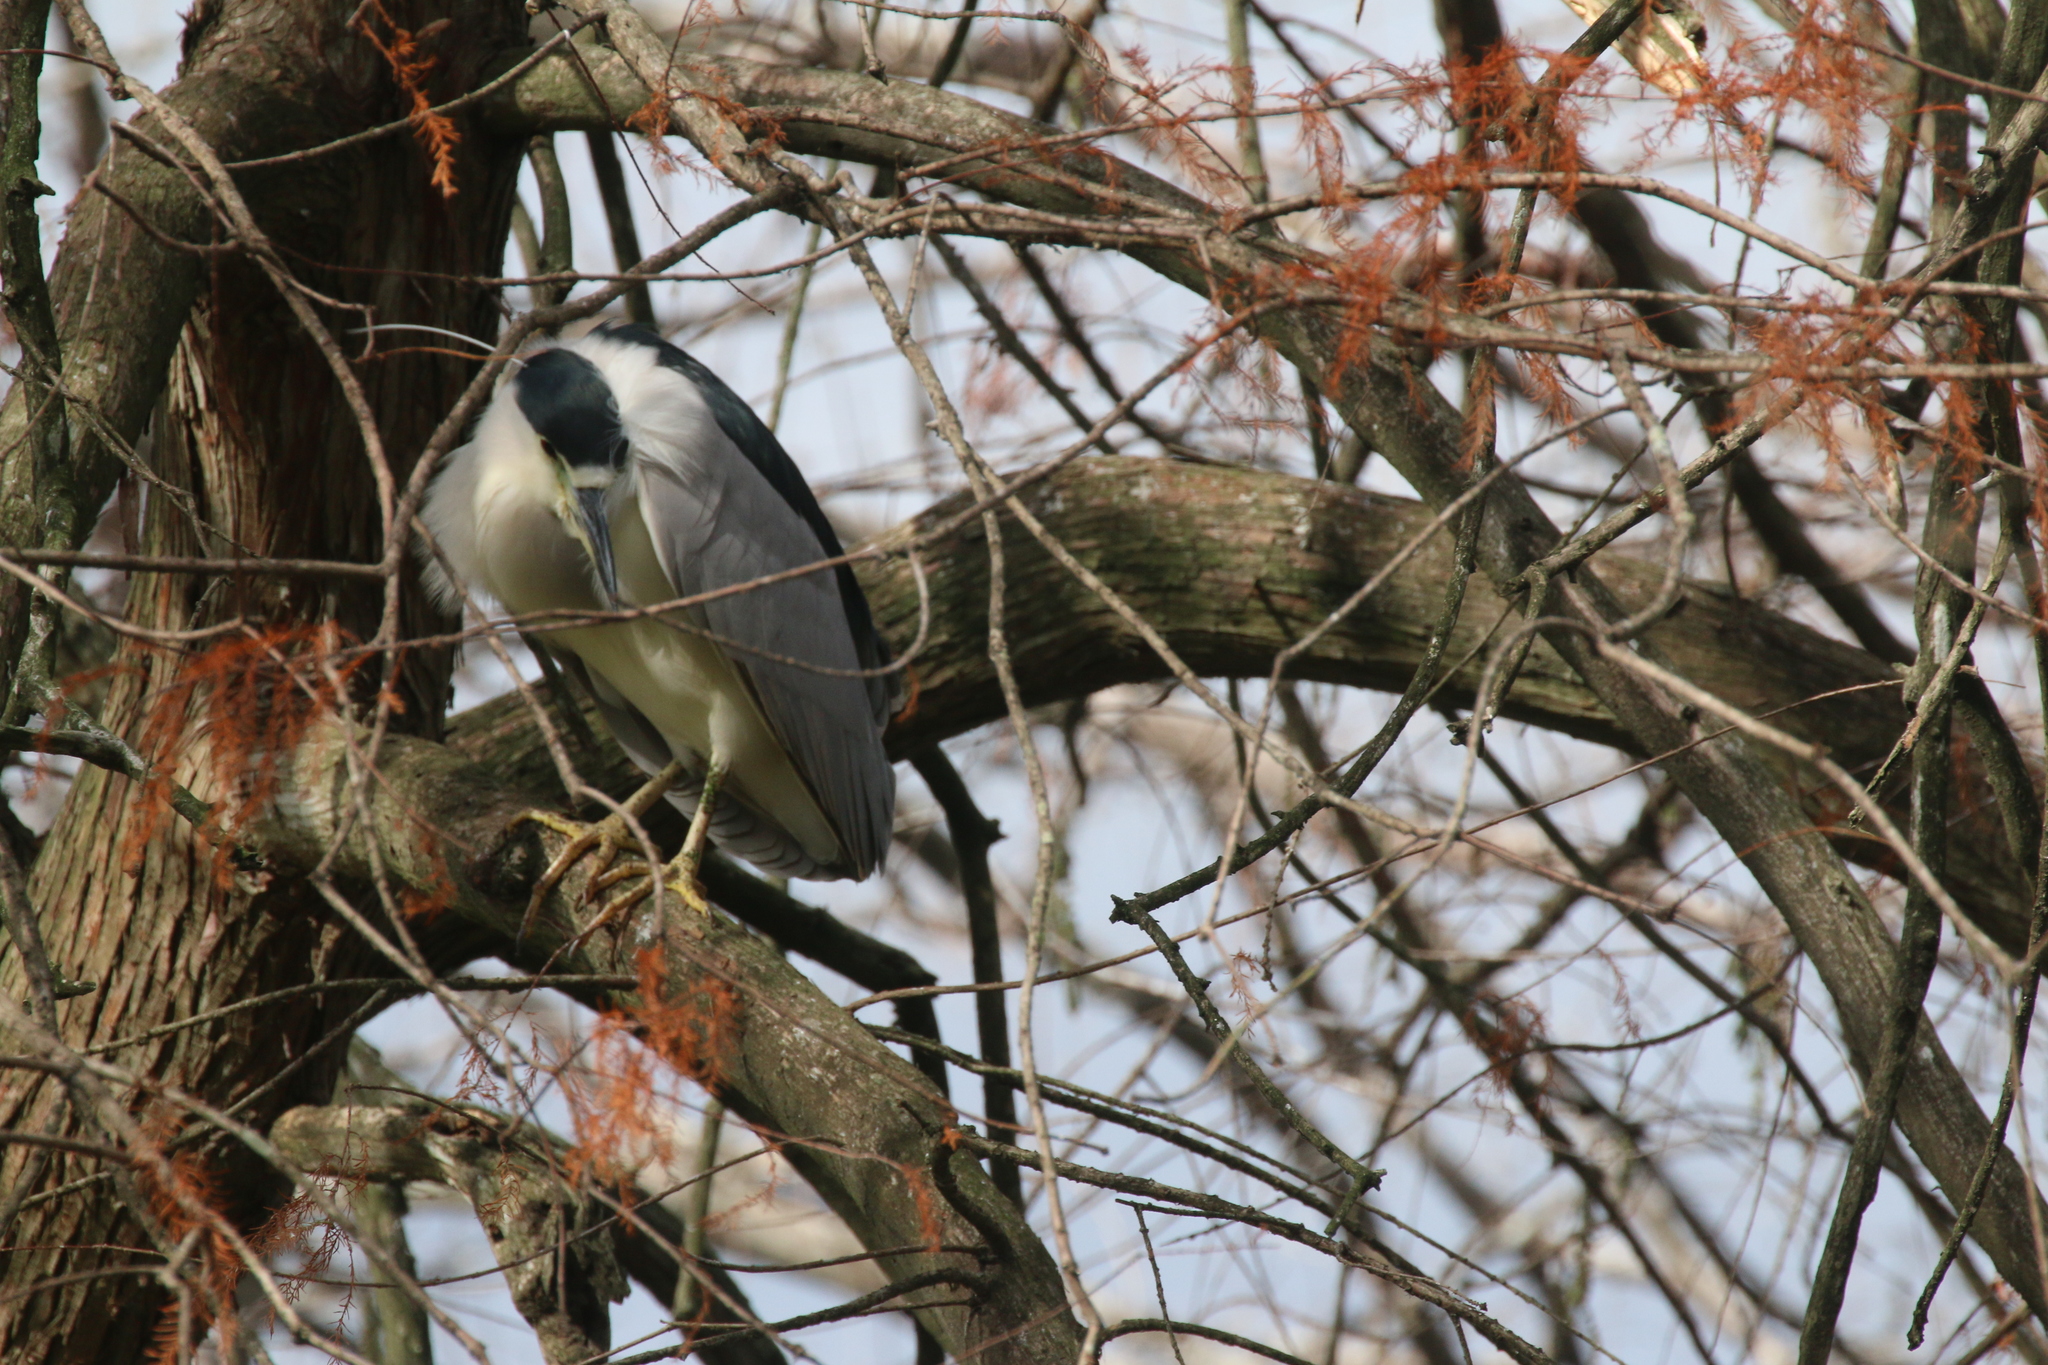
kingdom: Animalia
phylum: Chordata
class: Aves
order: Pelecaniformes
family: Ardeidae
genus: Nycticorax
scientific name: Nycticorax nycticorax
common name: Black-crowned night heron
